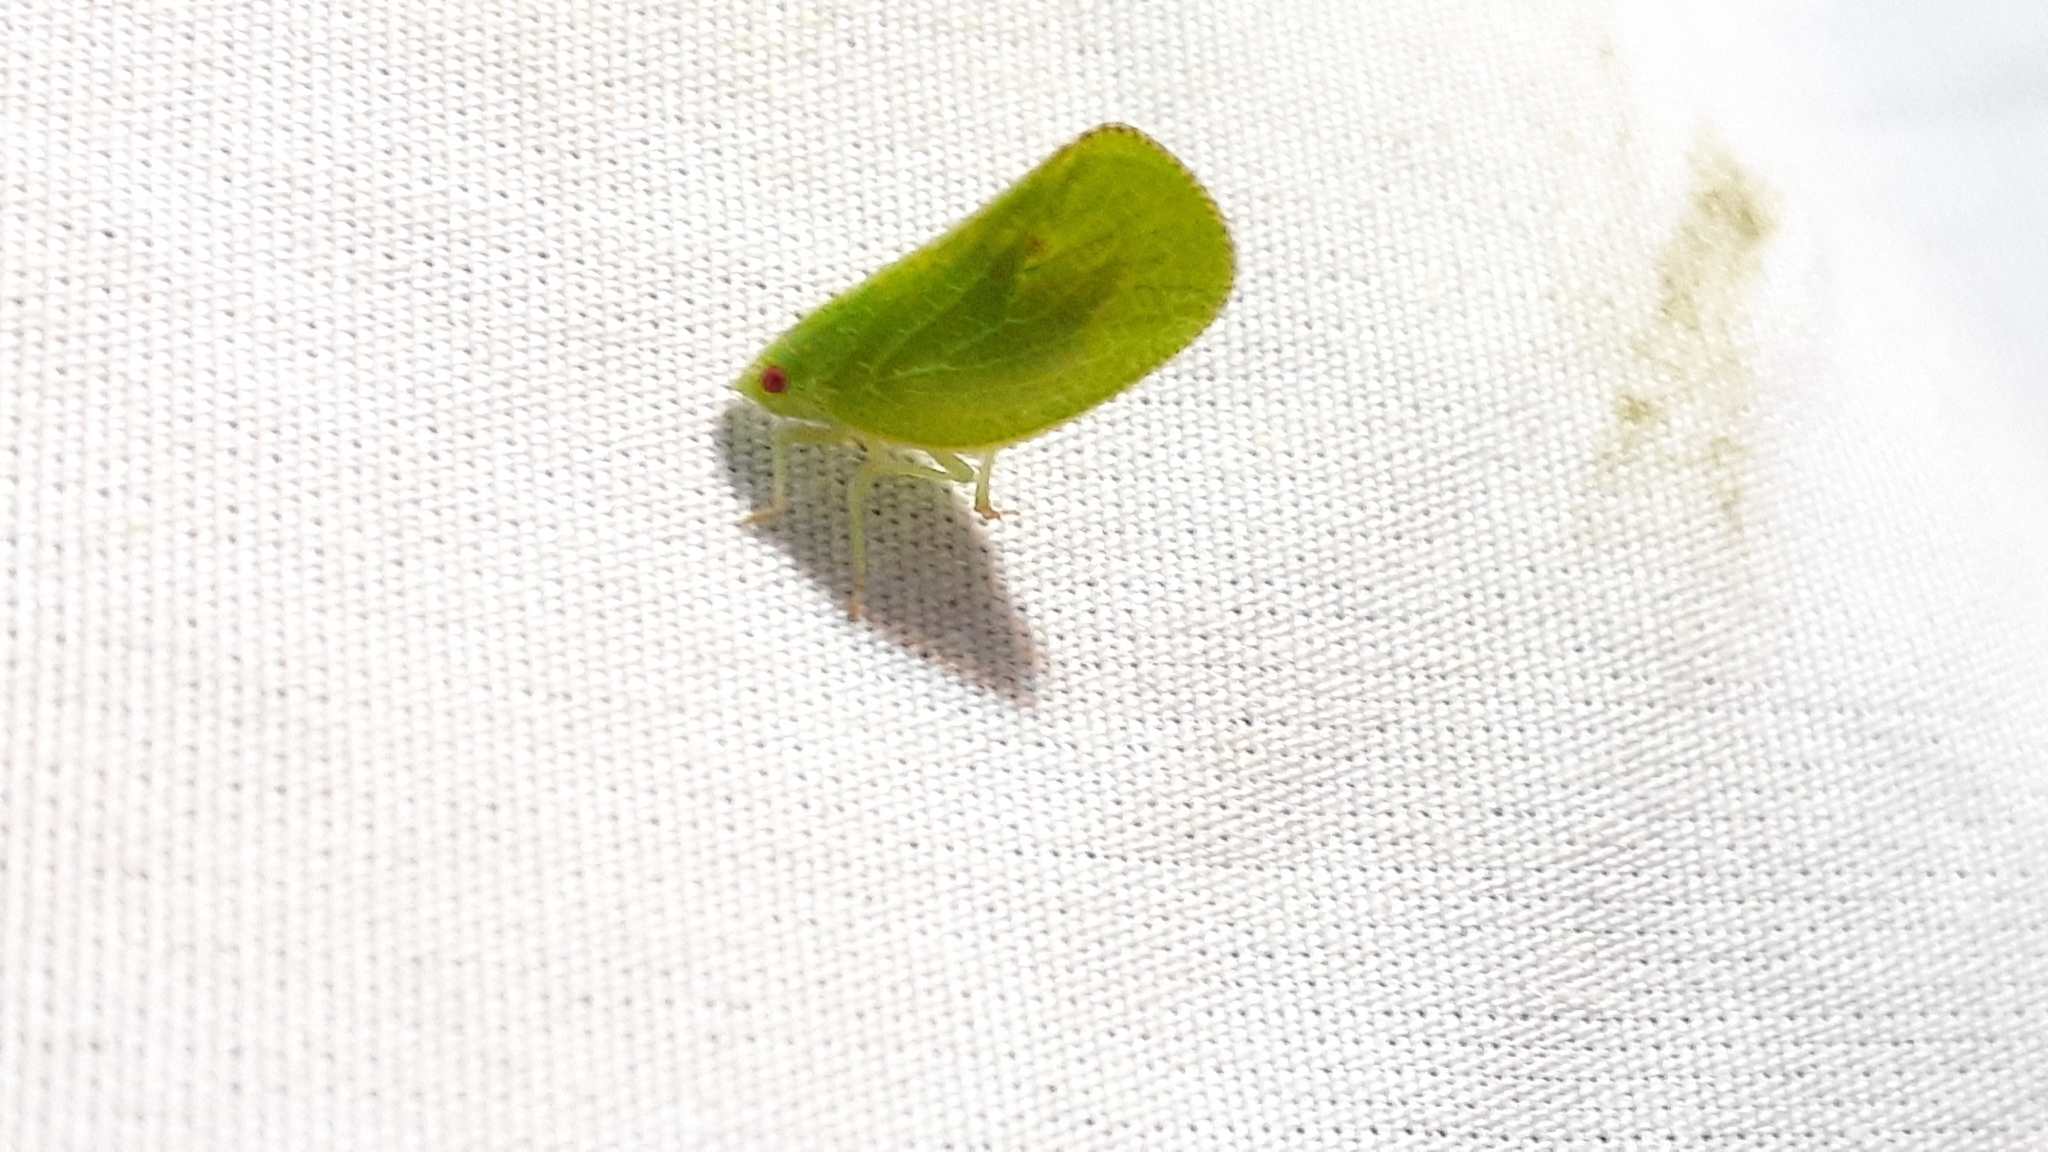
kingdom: Animalia
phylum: Arthropoda
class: Insecta
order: Hemiptera
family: Acanaloniidae
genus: Acanalonia
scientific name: Acanalonia conica
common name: Green cone-headed planthopper
